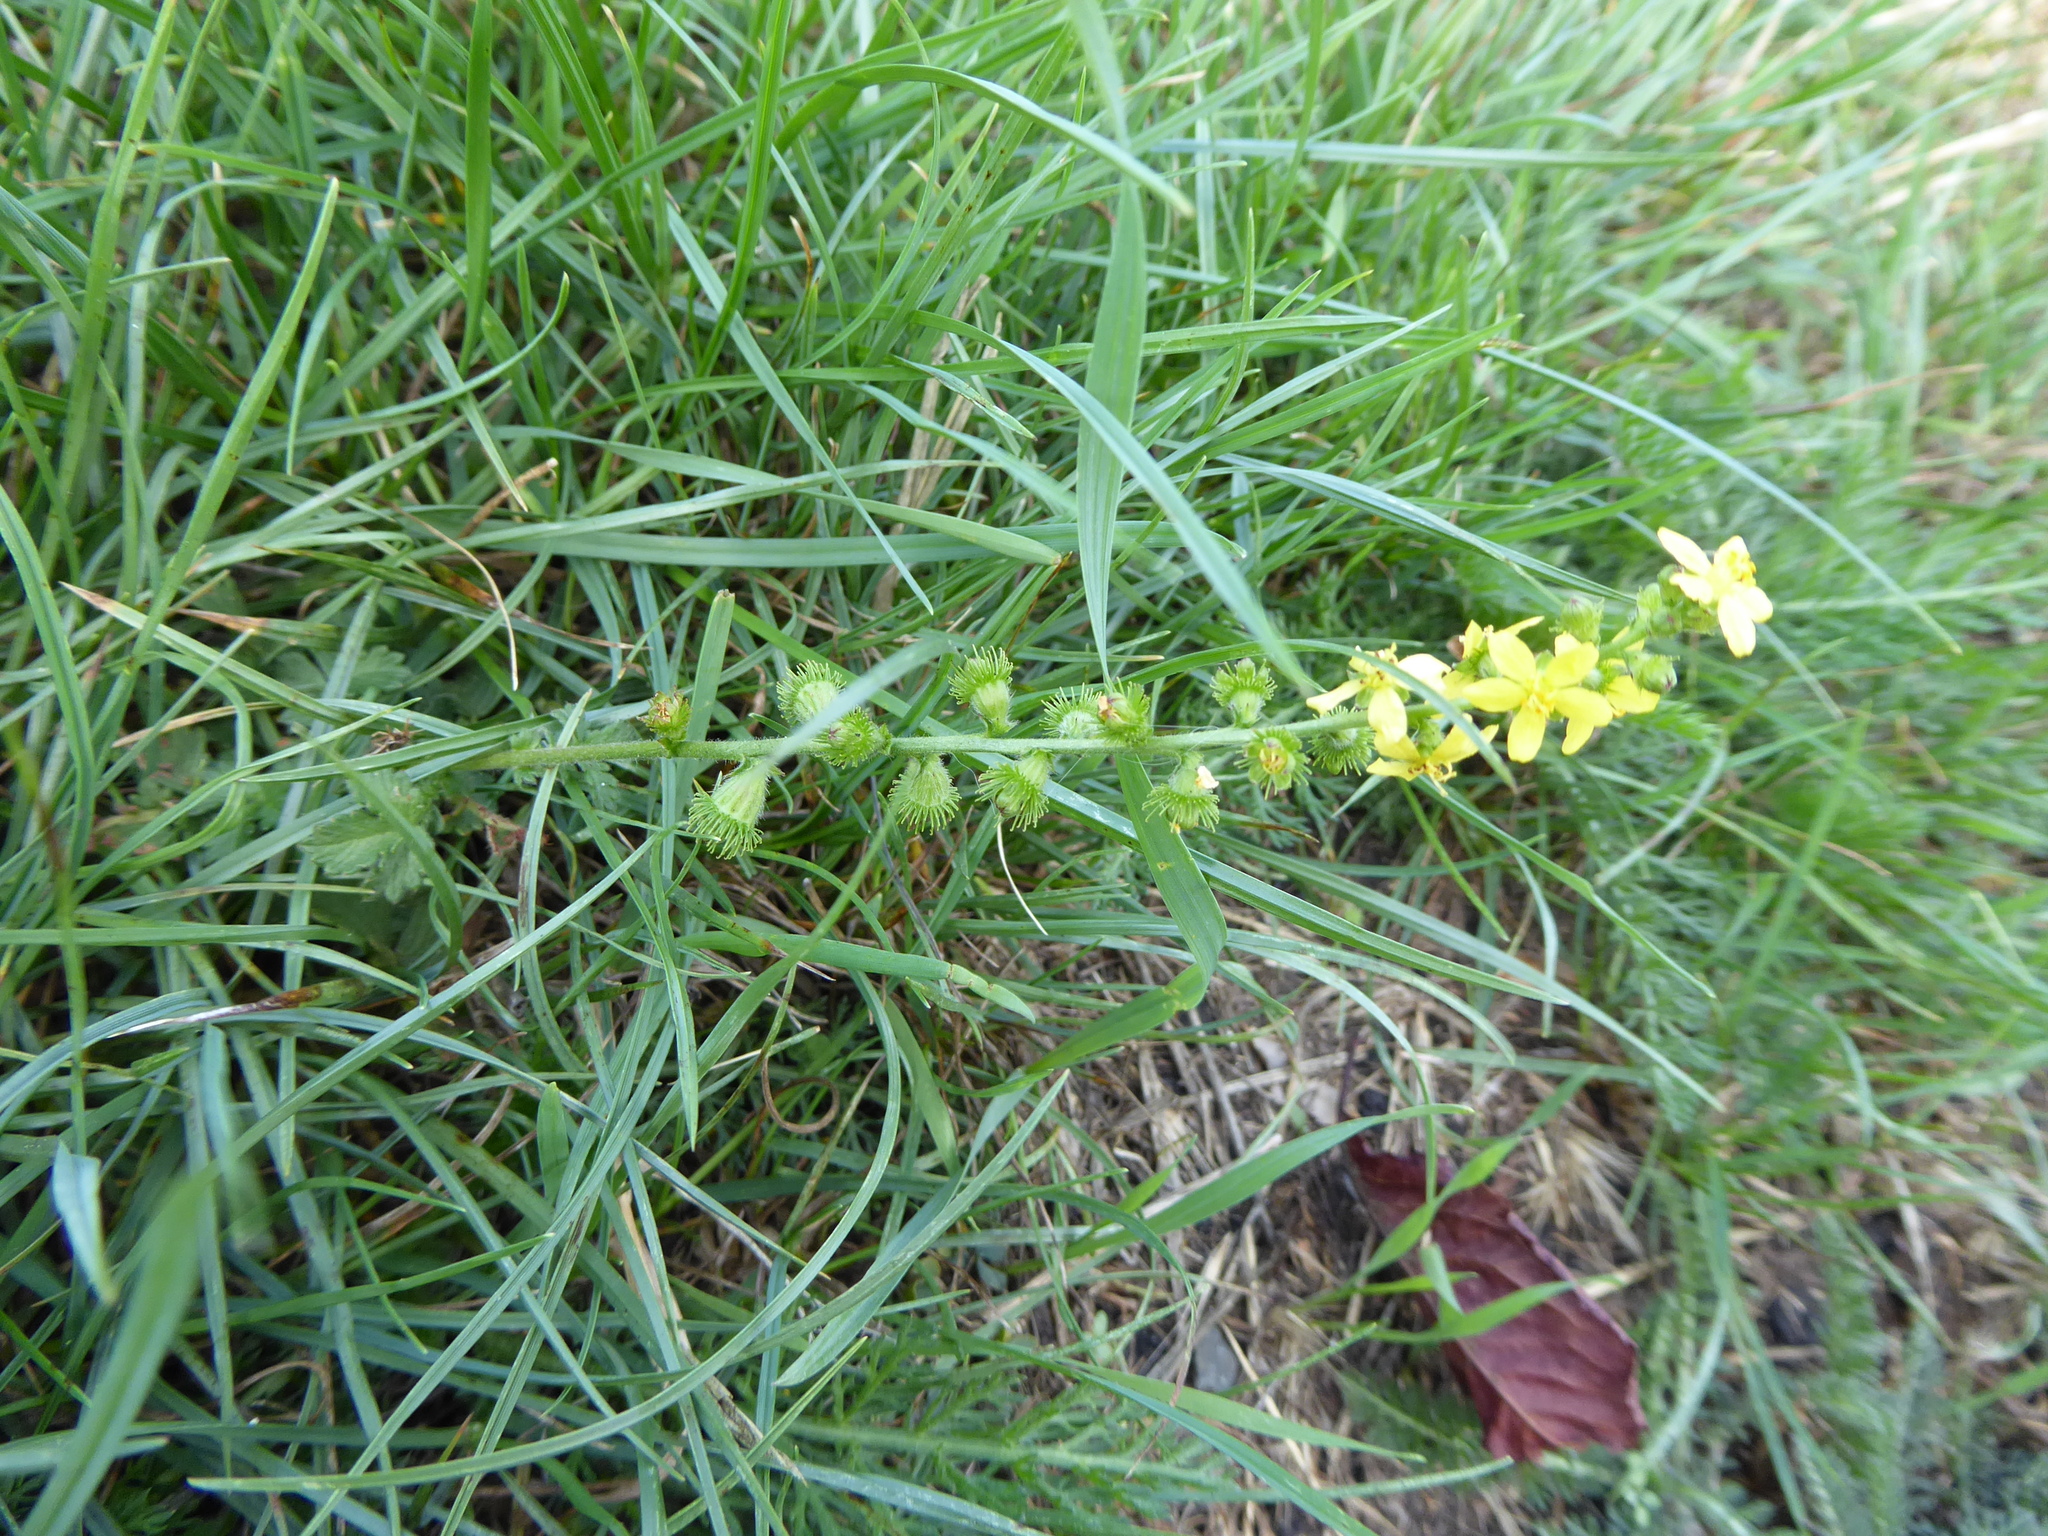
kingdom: Plantae
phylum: Tracheophyta
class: Magnoliopsida
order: Rosales
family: Rosaceae
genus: Agrimonia
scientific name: Agrimonia eupatoria
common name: Agrimony
